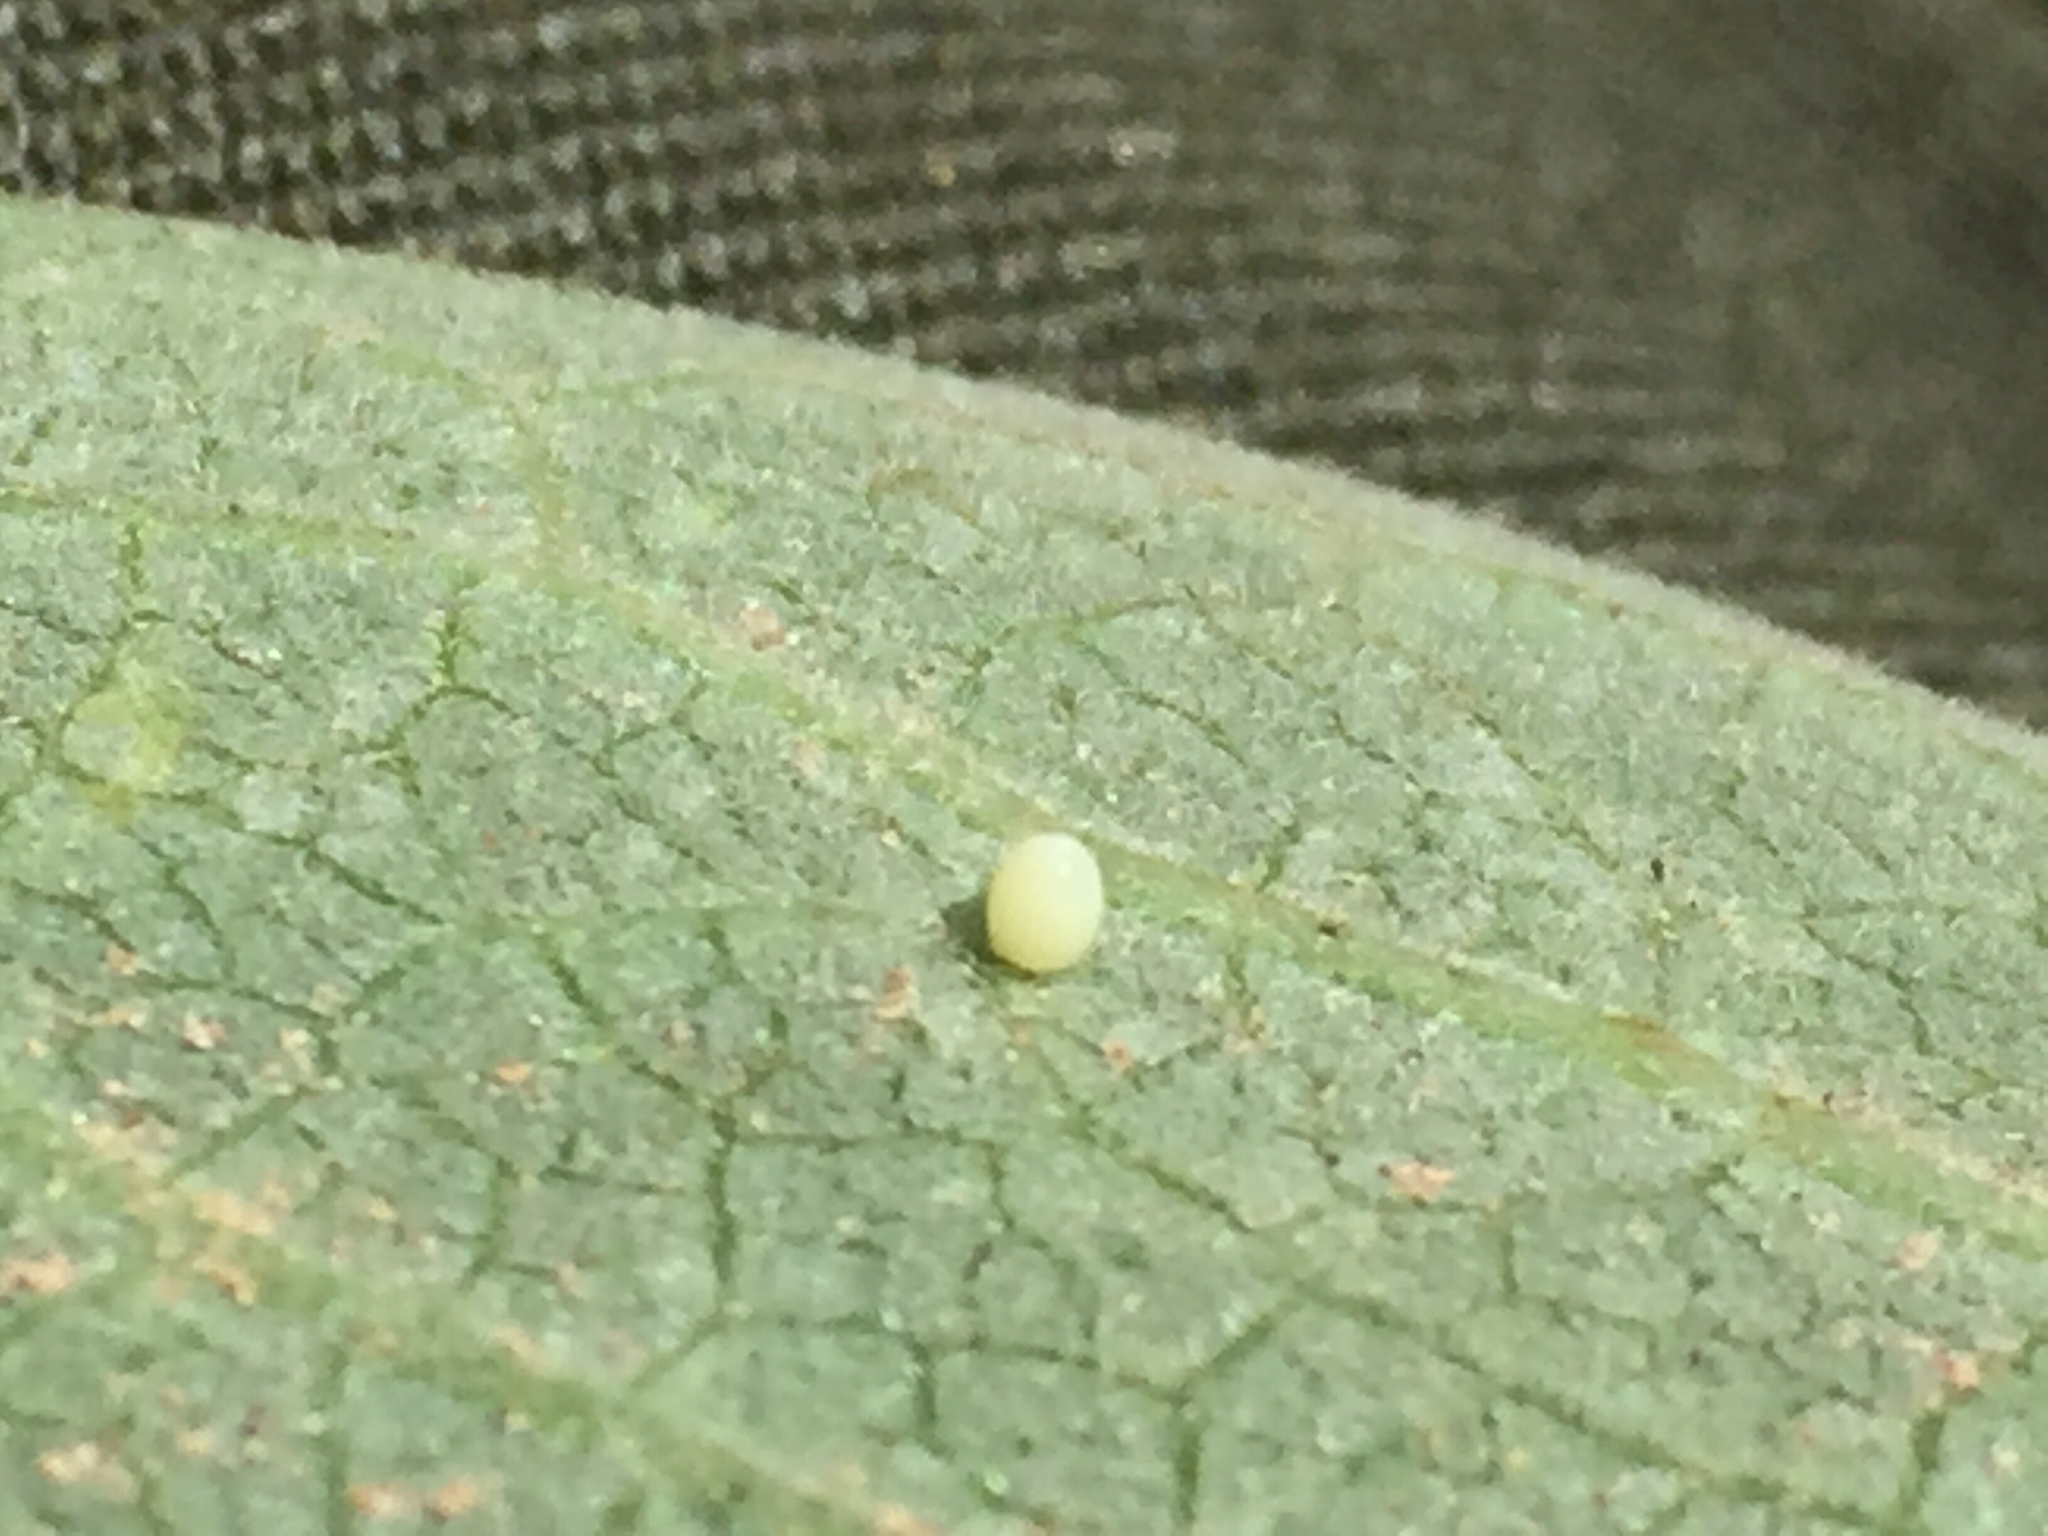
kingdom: Animalia
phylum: Arthropoda
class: Insecta
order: Lepidoptera
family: Nymphalidae
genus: Danaus
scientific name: Danaus plexippus
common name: Monarch
